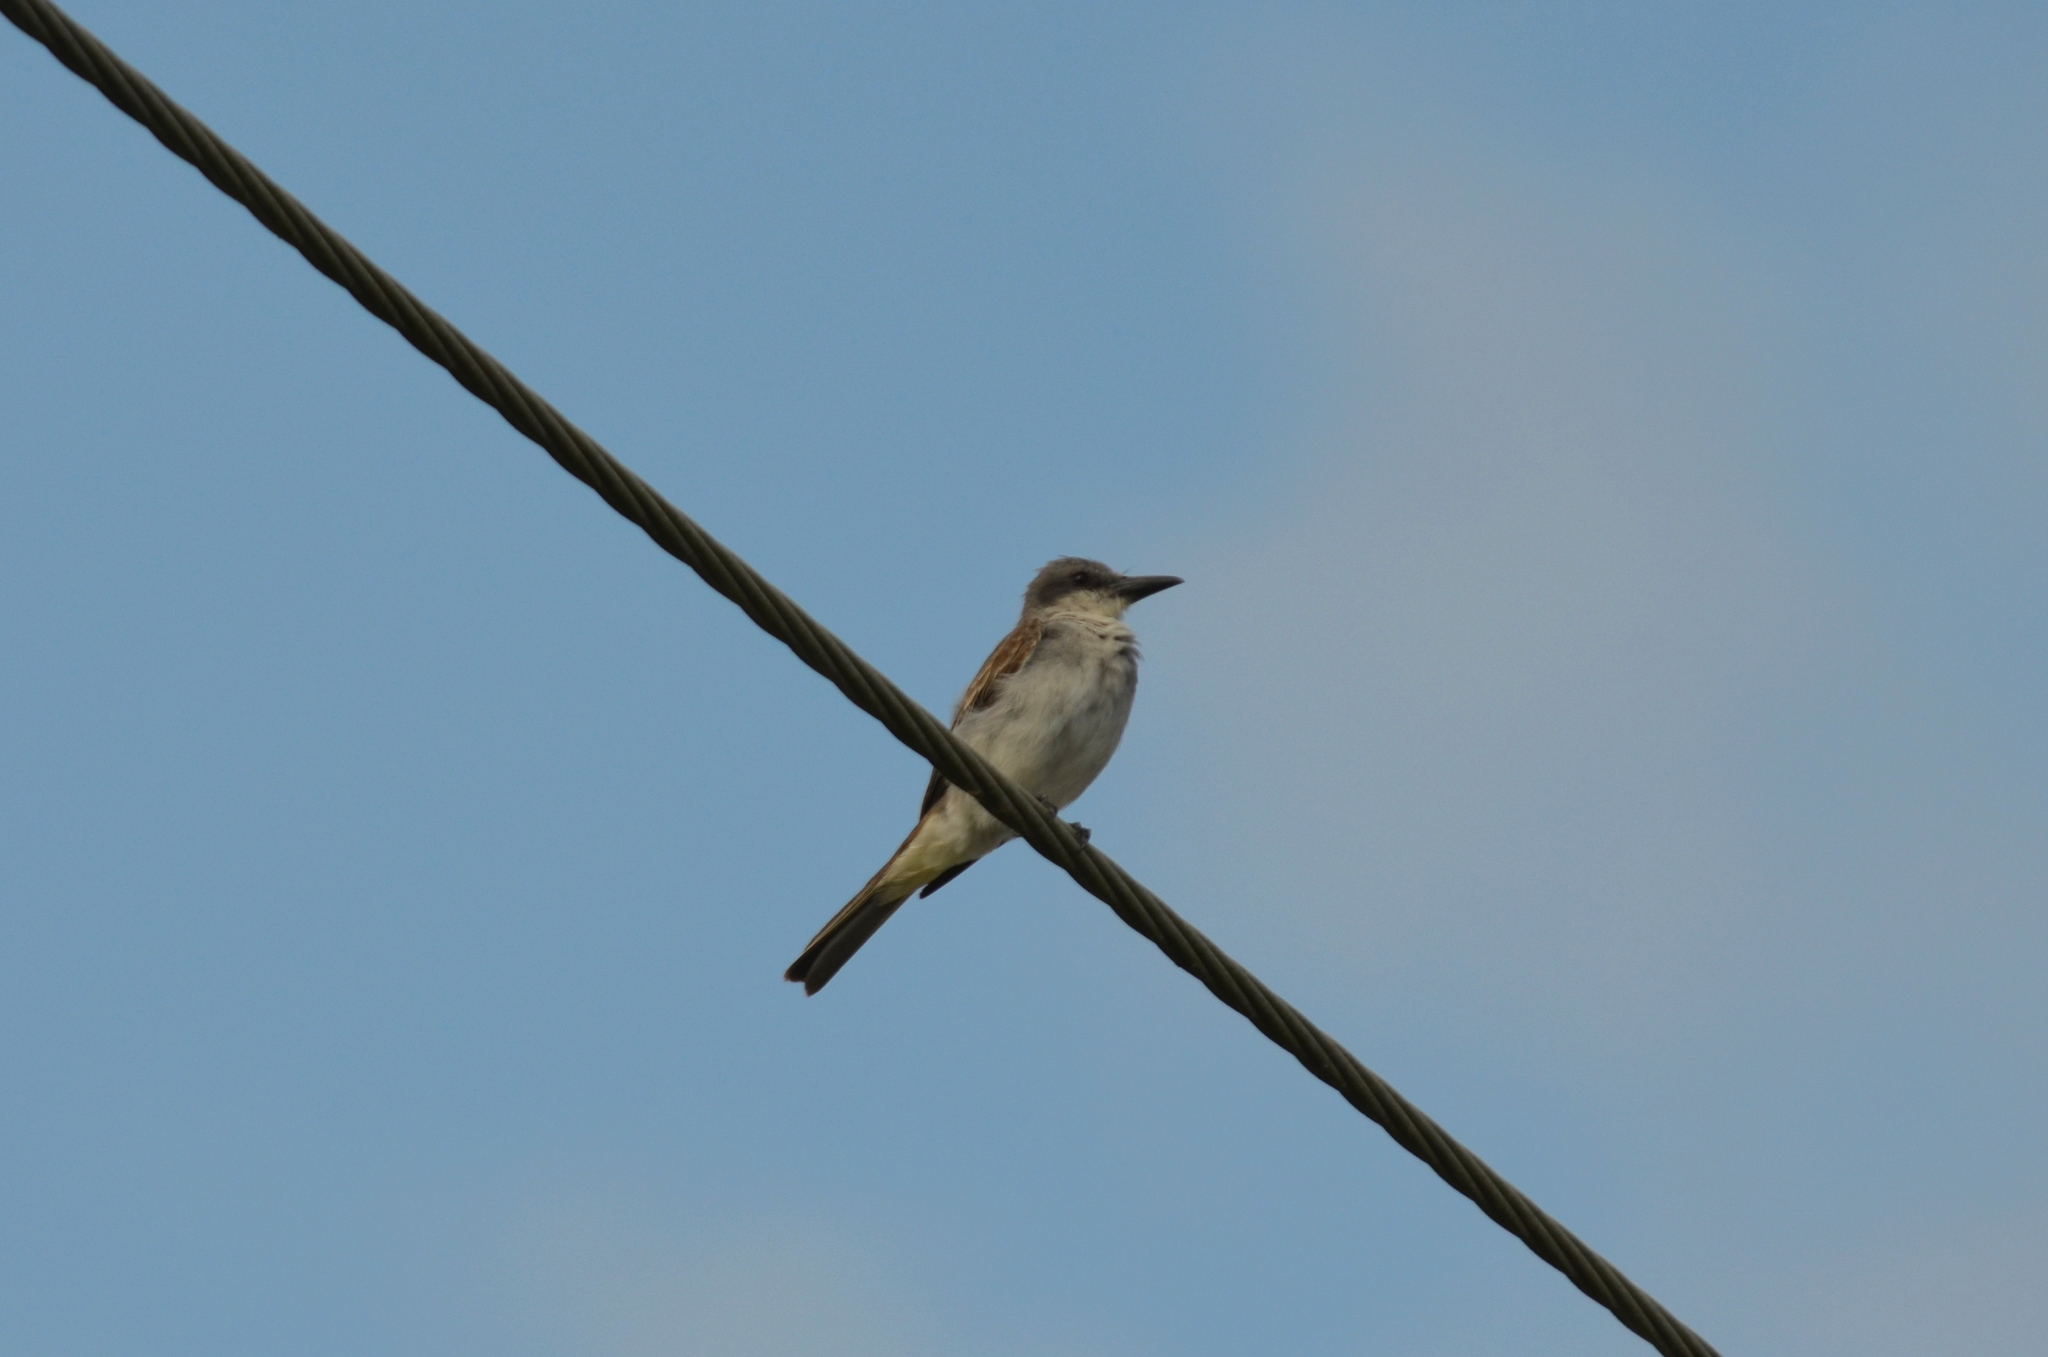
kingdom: Animalia
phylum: Chordata
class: Aves
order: Passeriformes
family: Tyrannidae
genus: Tyrannus
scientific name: Tyrannus dominicensis
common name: Gray kingbird
